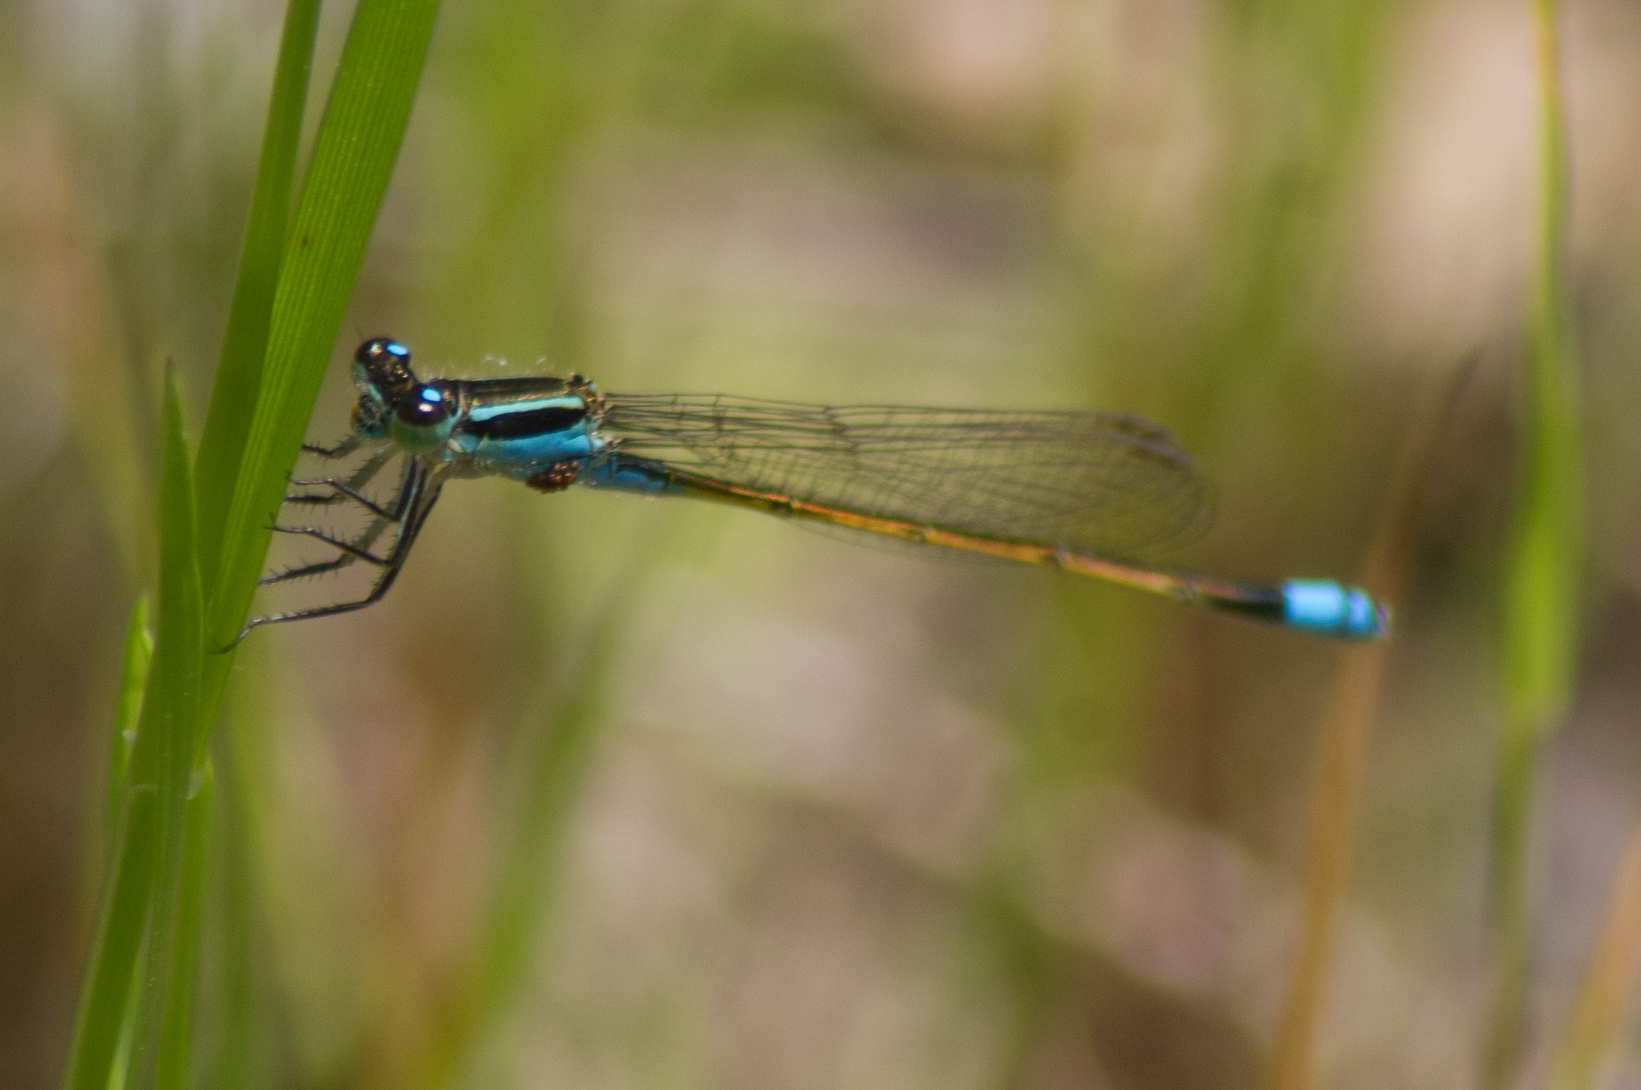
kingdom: Animalia
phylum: Arthropoda
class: Insecta
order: Odonata
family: Coenagrionidae
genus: Ischnura
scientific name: Ischnura ramburii
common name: Rambur's forktail
